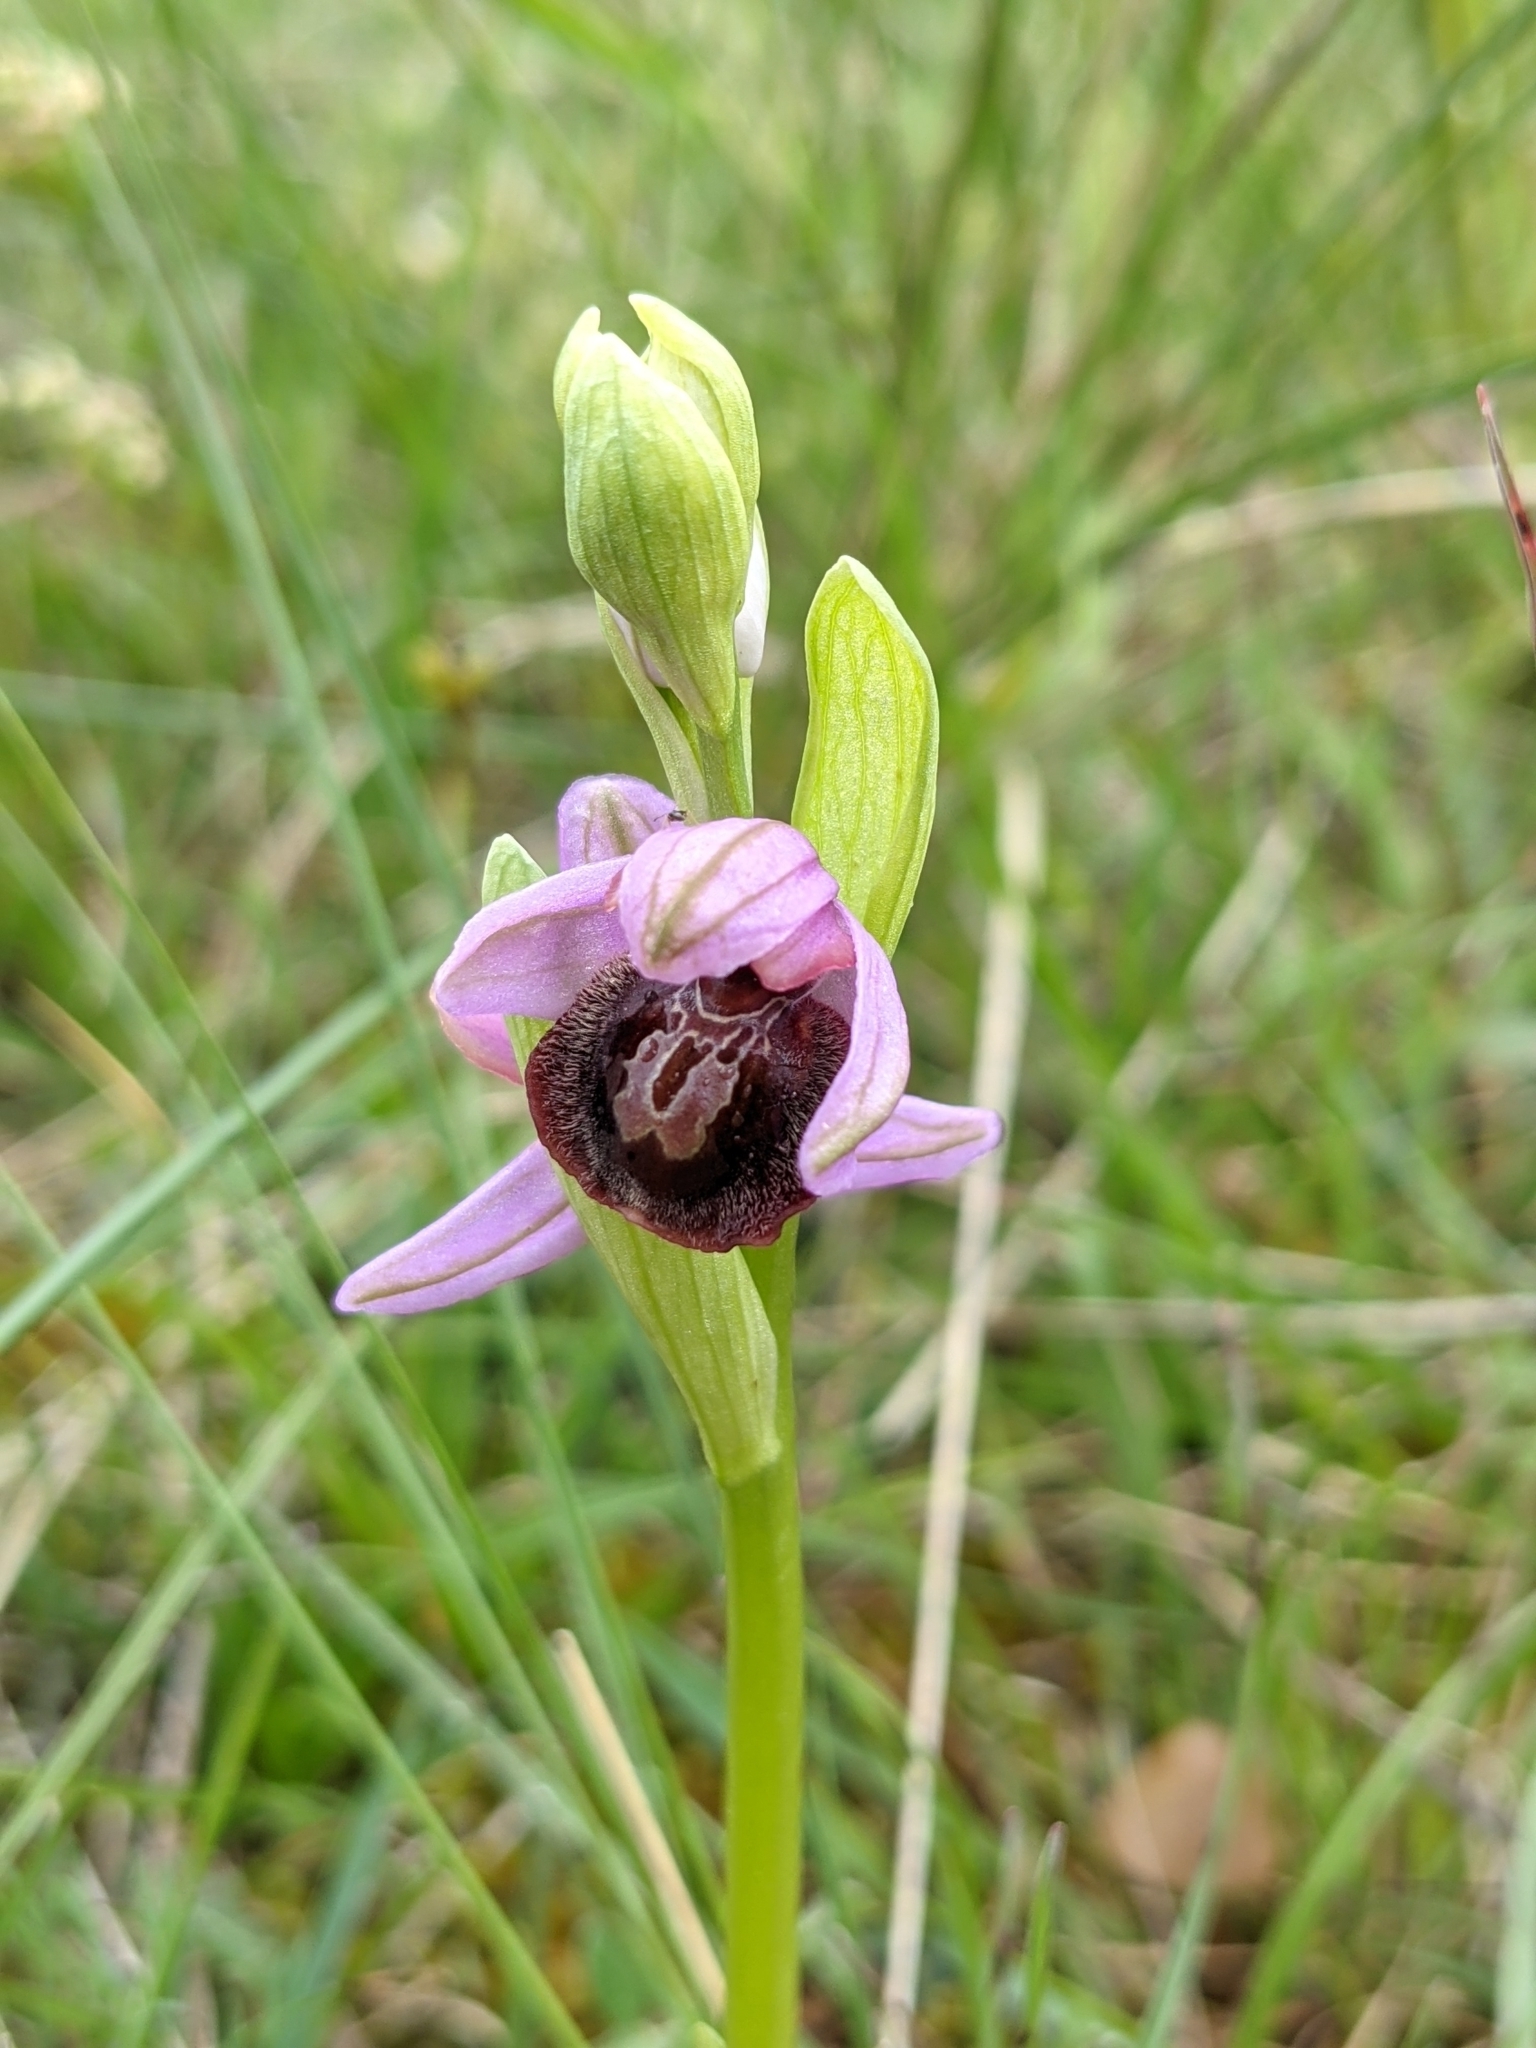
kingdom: Plantae
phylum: Tracheophyta
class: Liliopsida
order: Asparagales
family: Orchidaceae
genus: Ophrys
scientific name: Ophrys sphegodes
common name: Early spider-orchid
